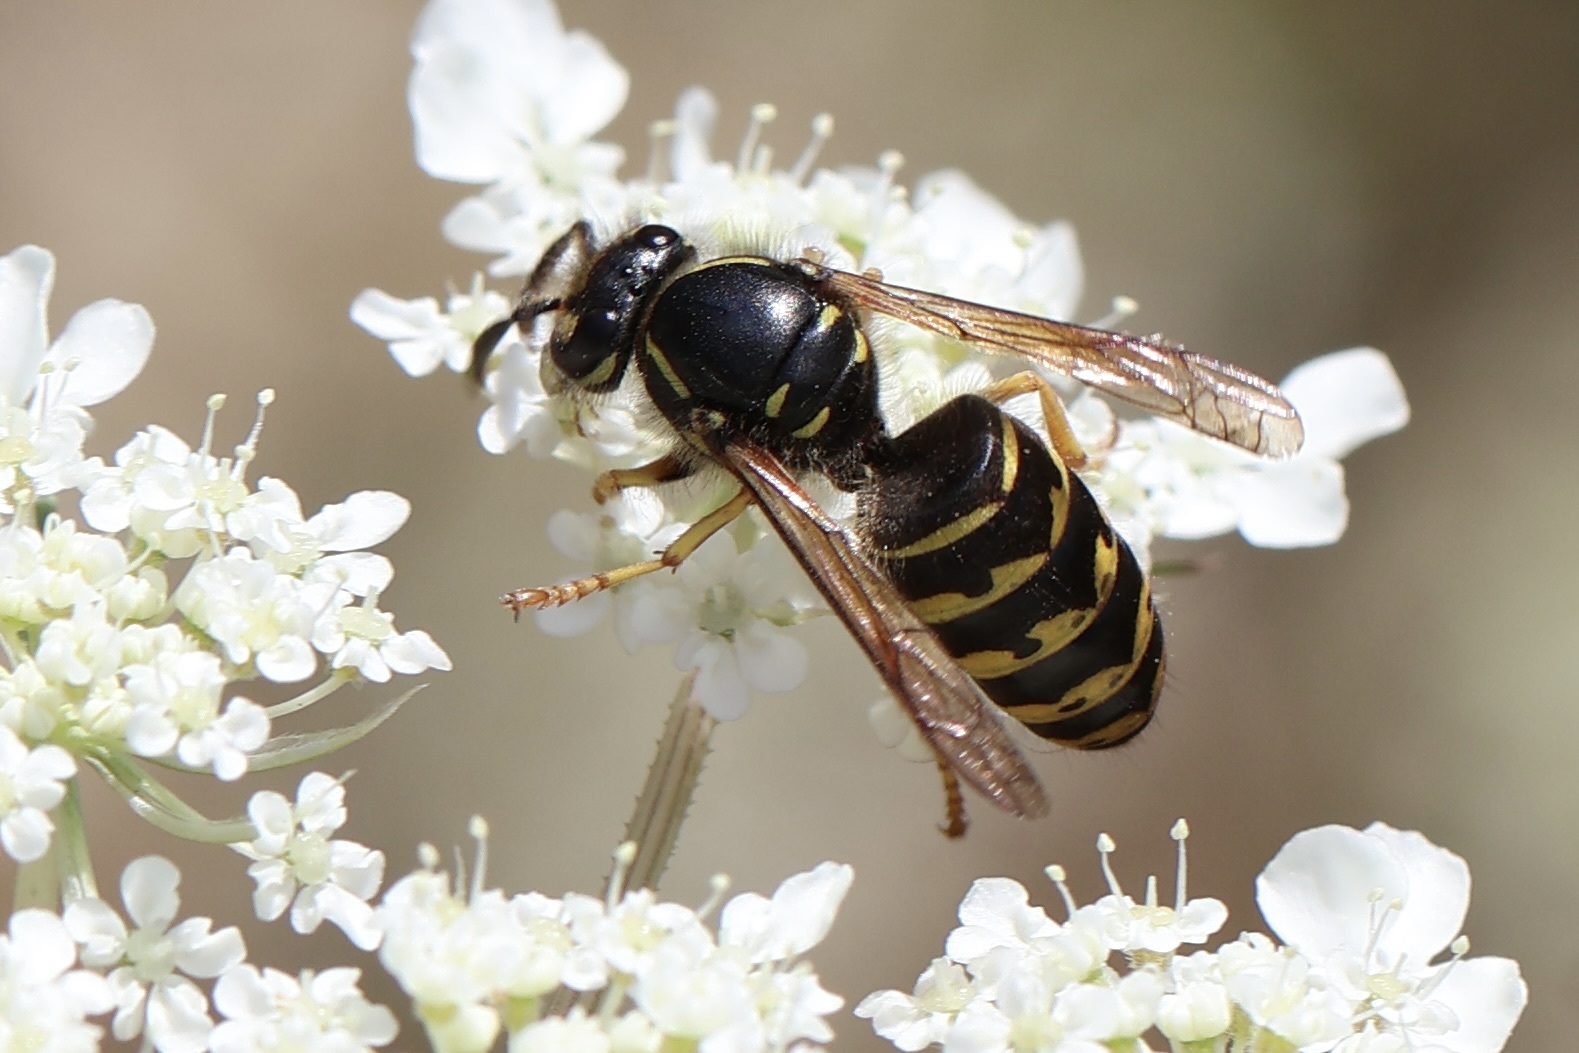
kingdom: Animalia
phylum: Arthropoda
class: Insecta
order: Hymenoptera
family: Vespidae
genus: Dolichovespula
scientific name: Dolichovespula arenaria
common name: Aerial yellowjacket
